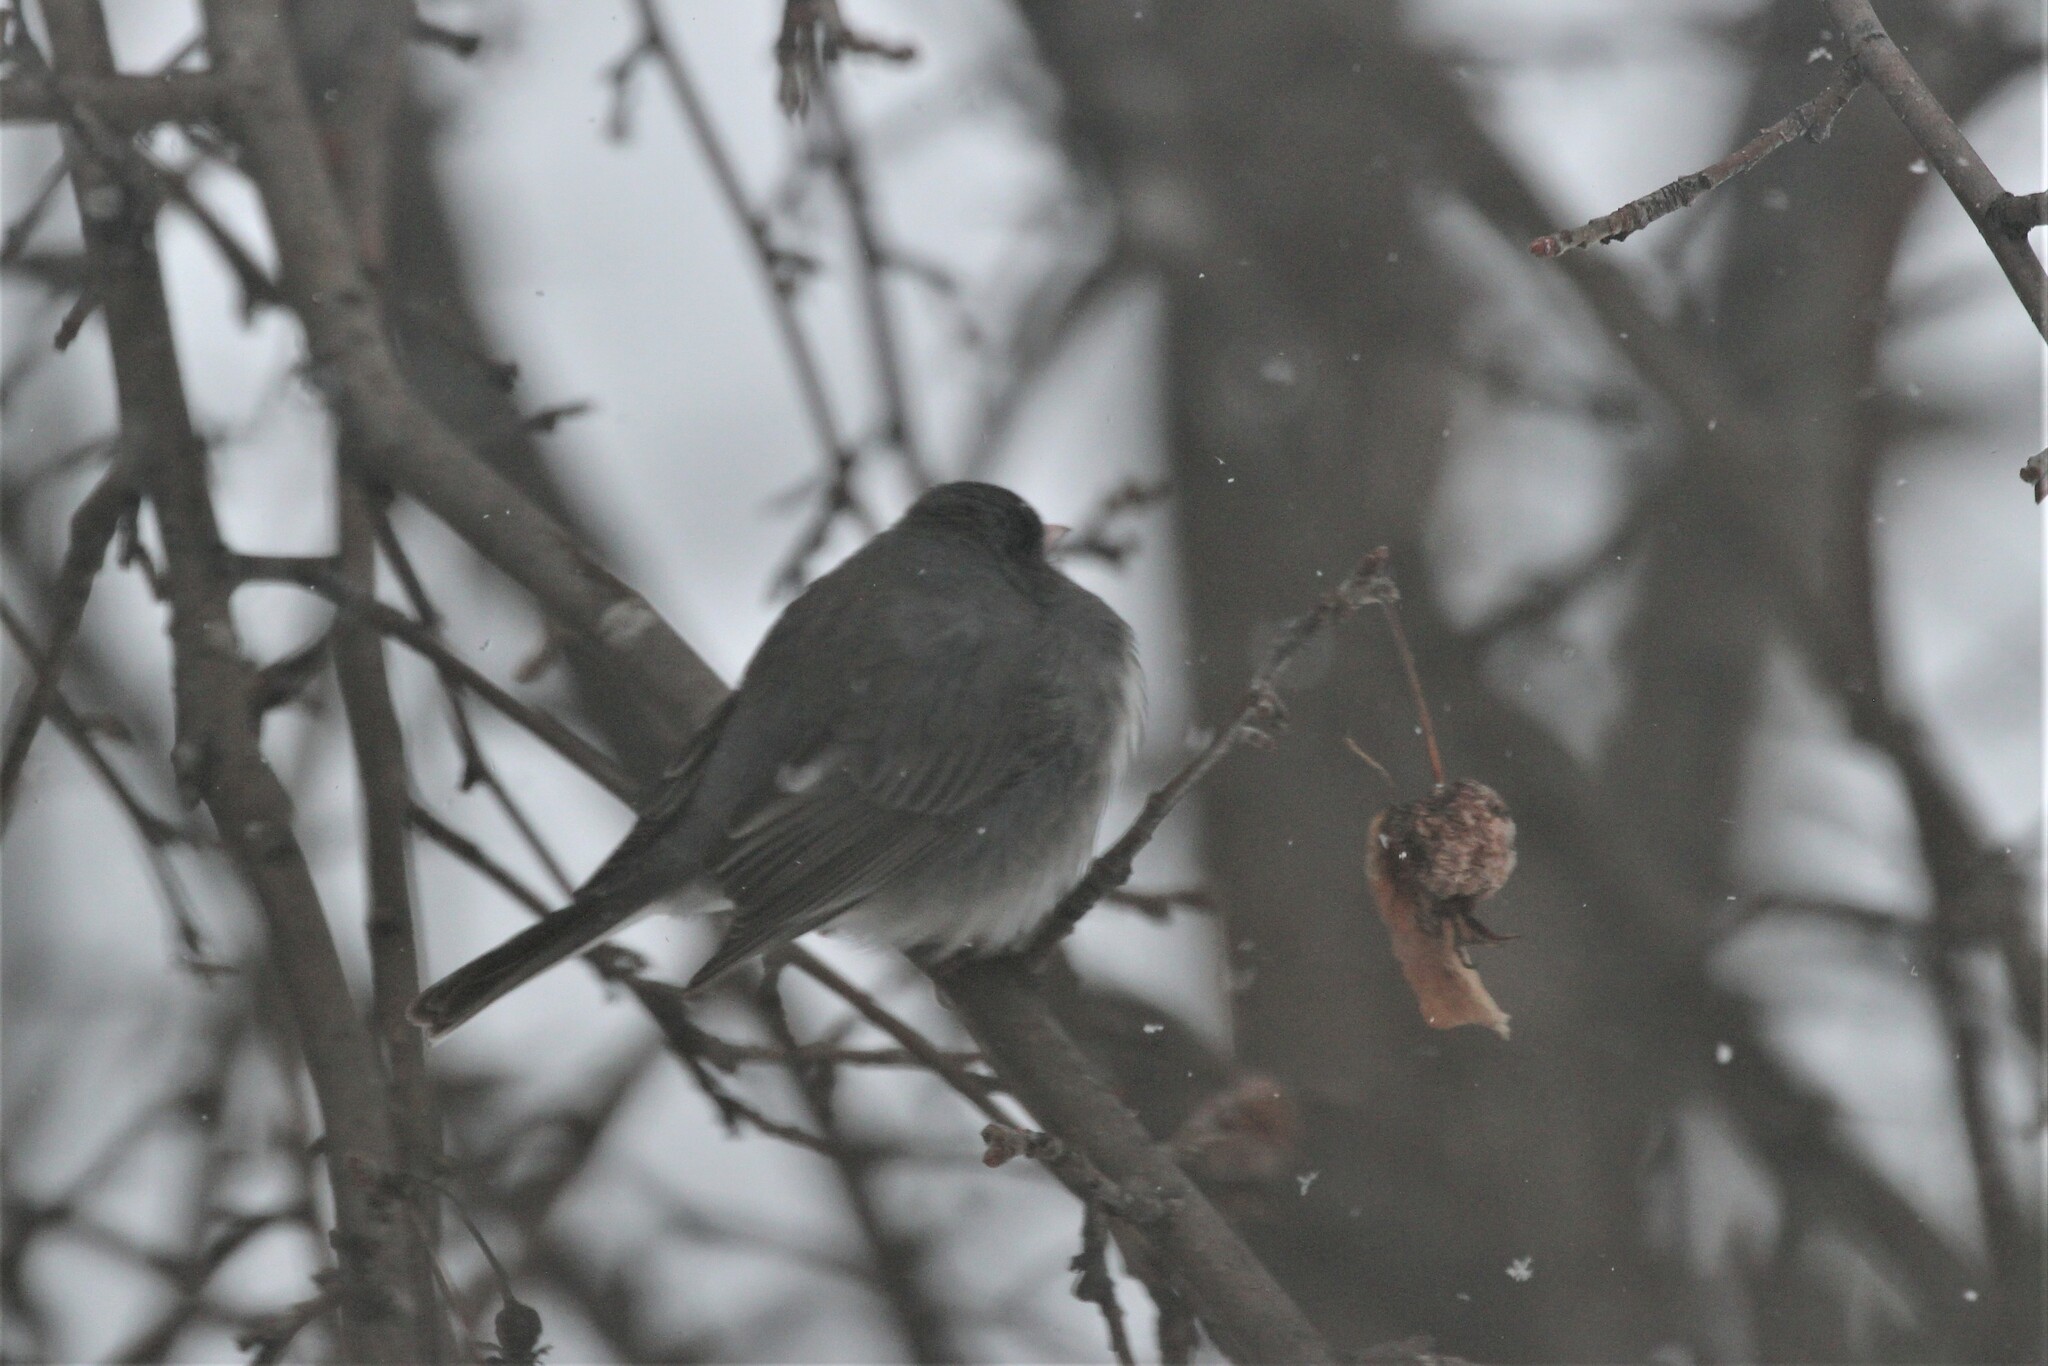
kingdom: Animalia
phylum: Chordata
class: Aves
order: Passeriformes
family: Passerellidae
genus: Junco
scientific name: Junco hyemalis
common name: Dark-eyed junco
